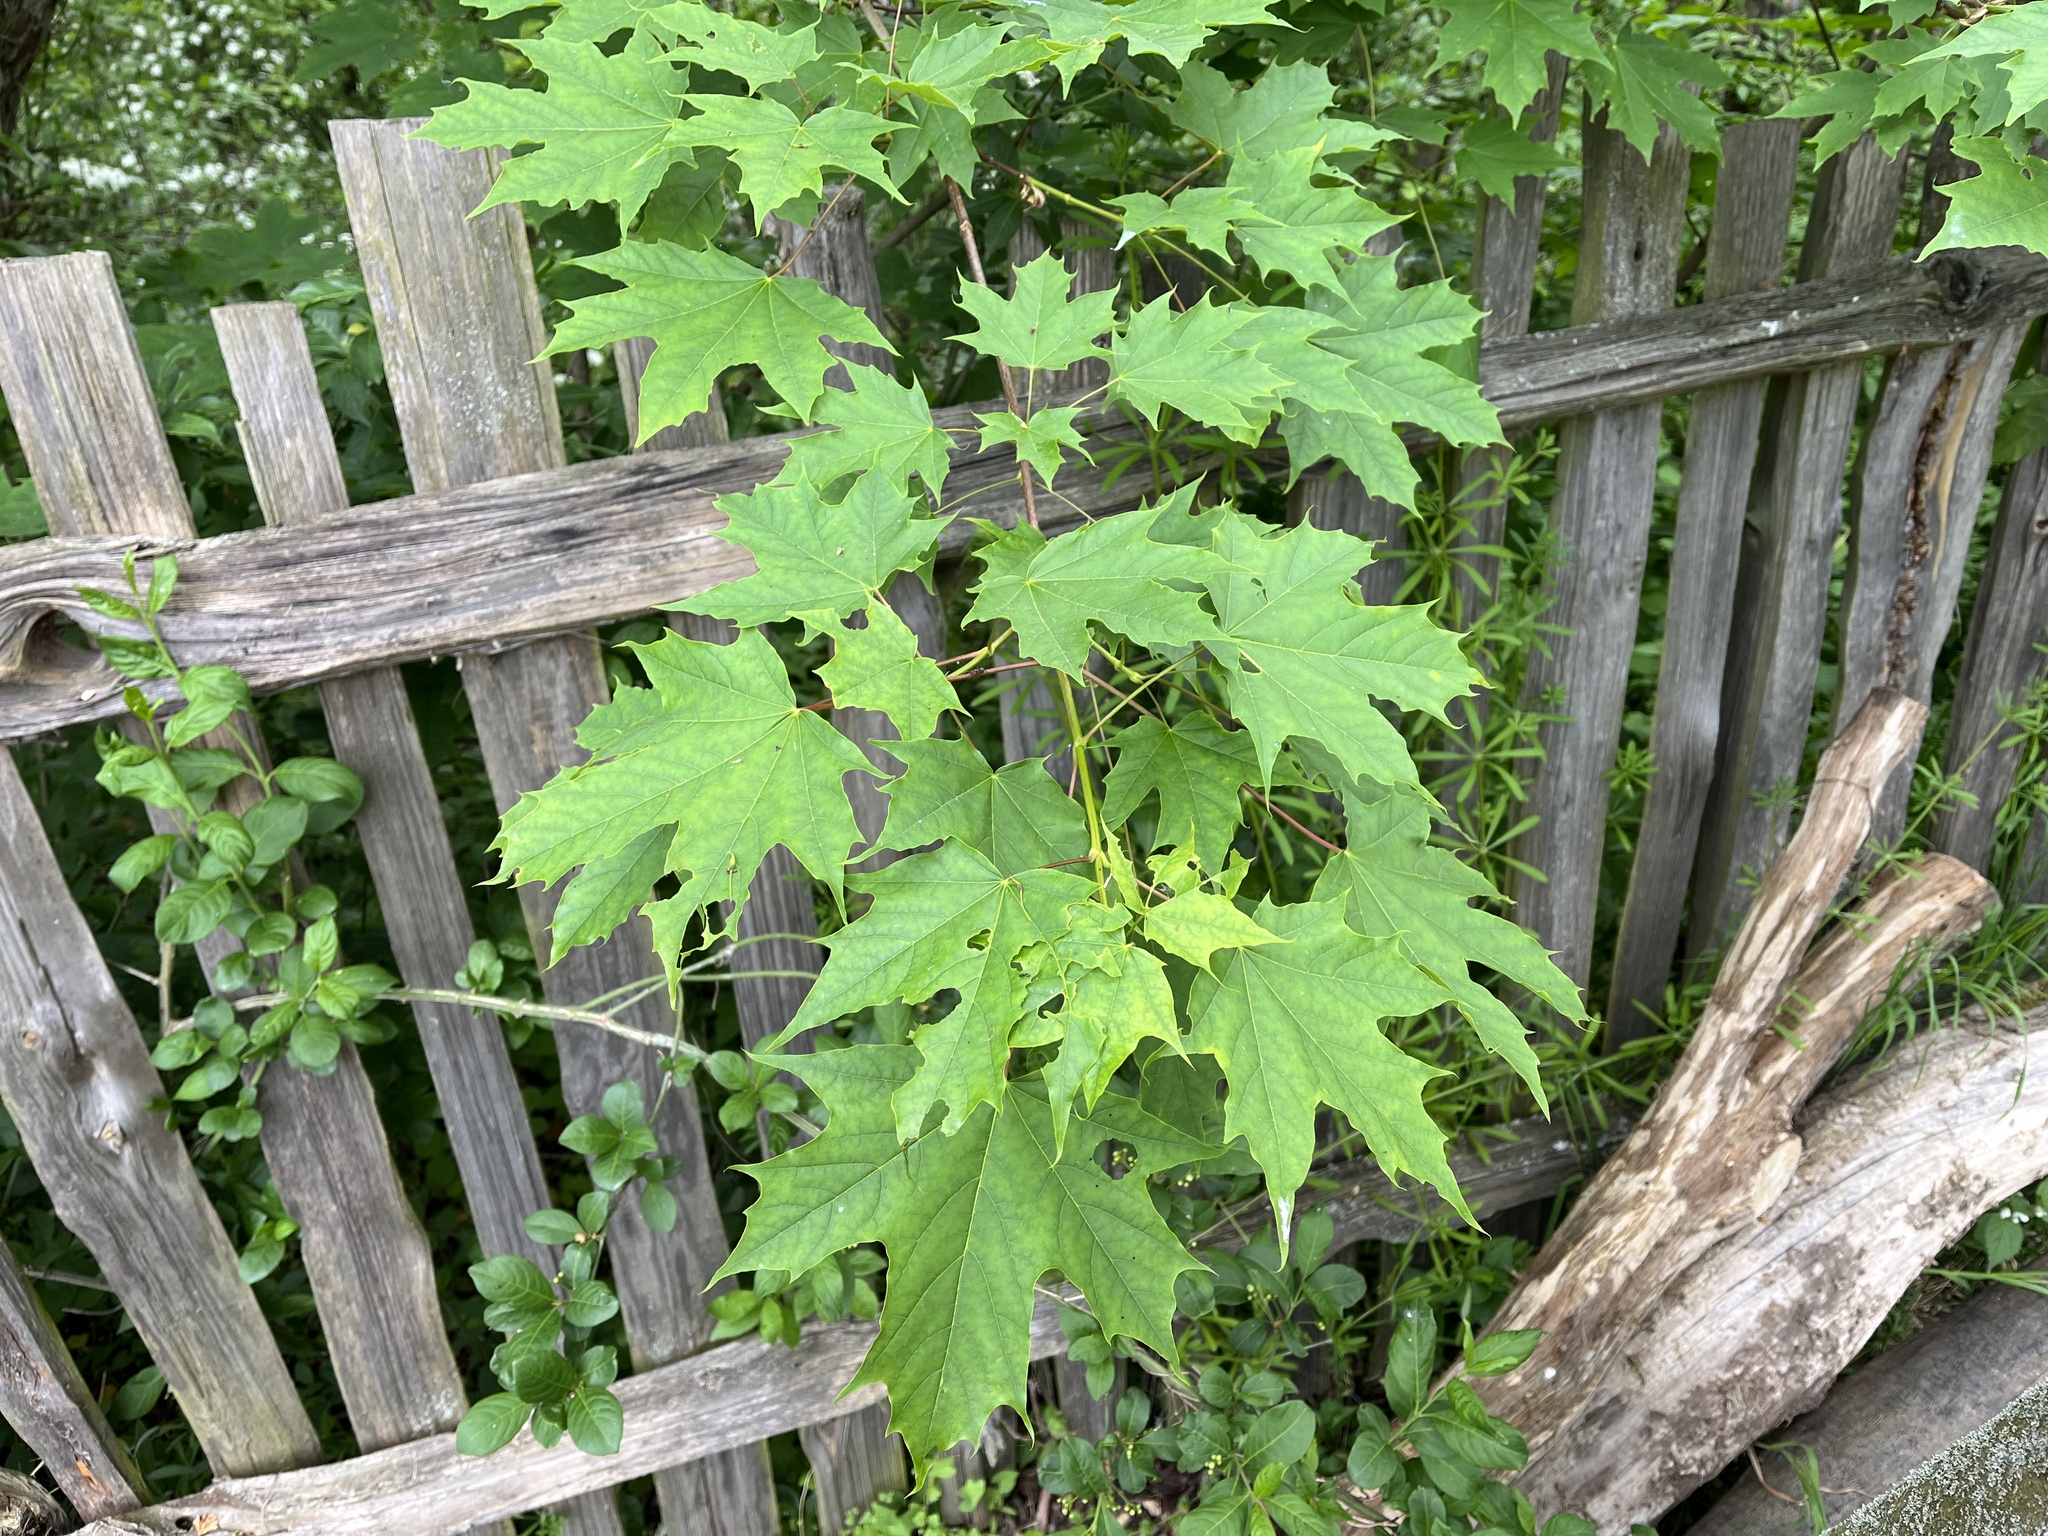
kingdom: Plantae
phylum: Tracheophyta
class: Magnoliopsida
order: Sapindales
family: Sapindaceae
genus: Acer
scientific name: Acer platanoides
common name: Norway maple
